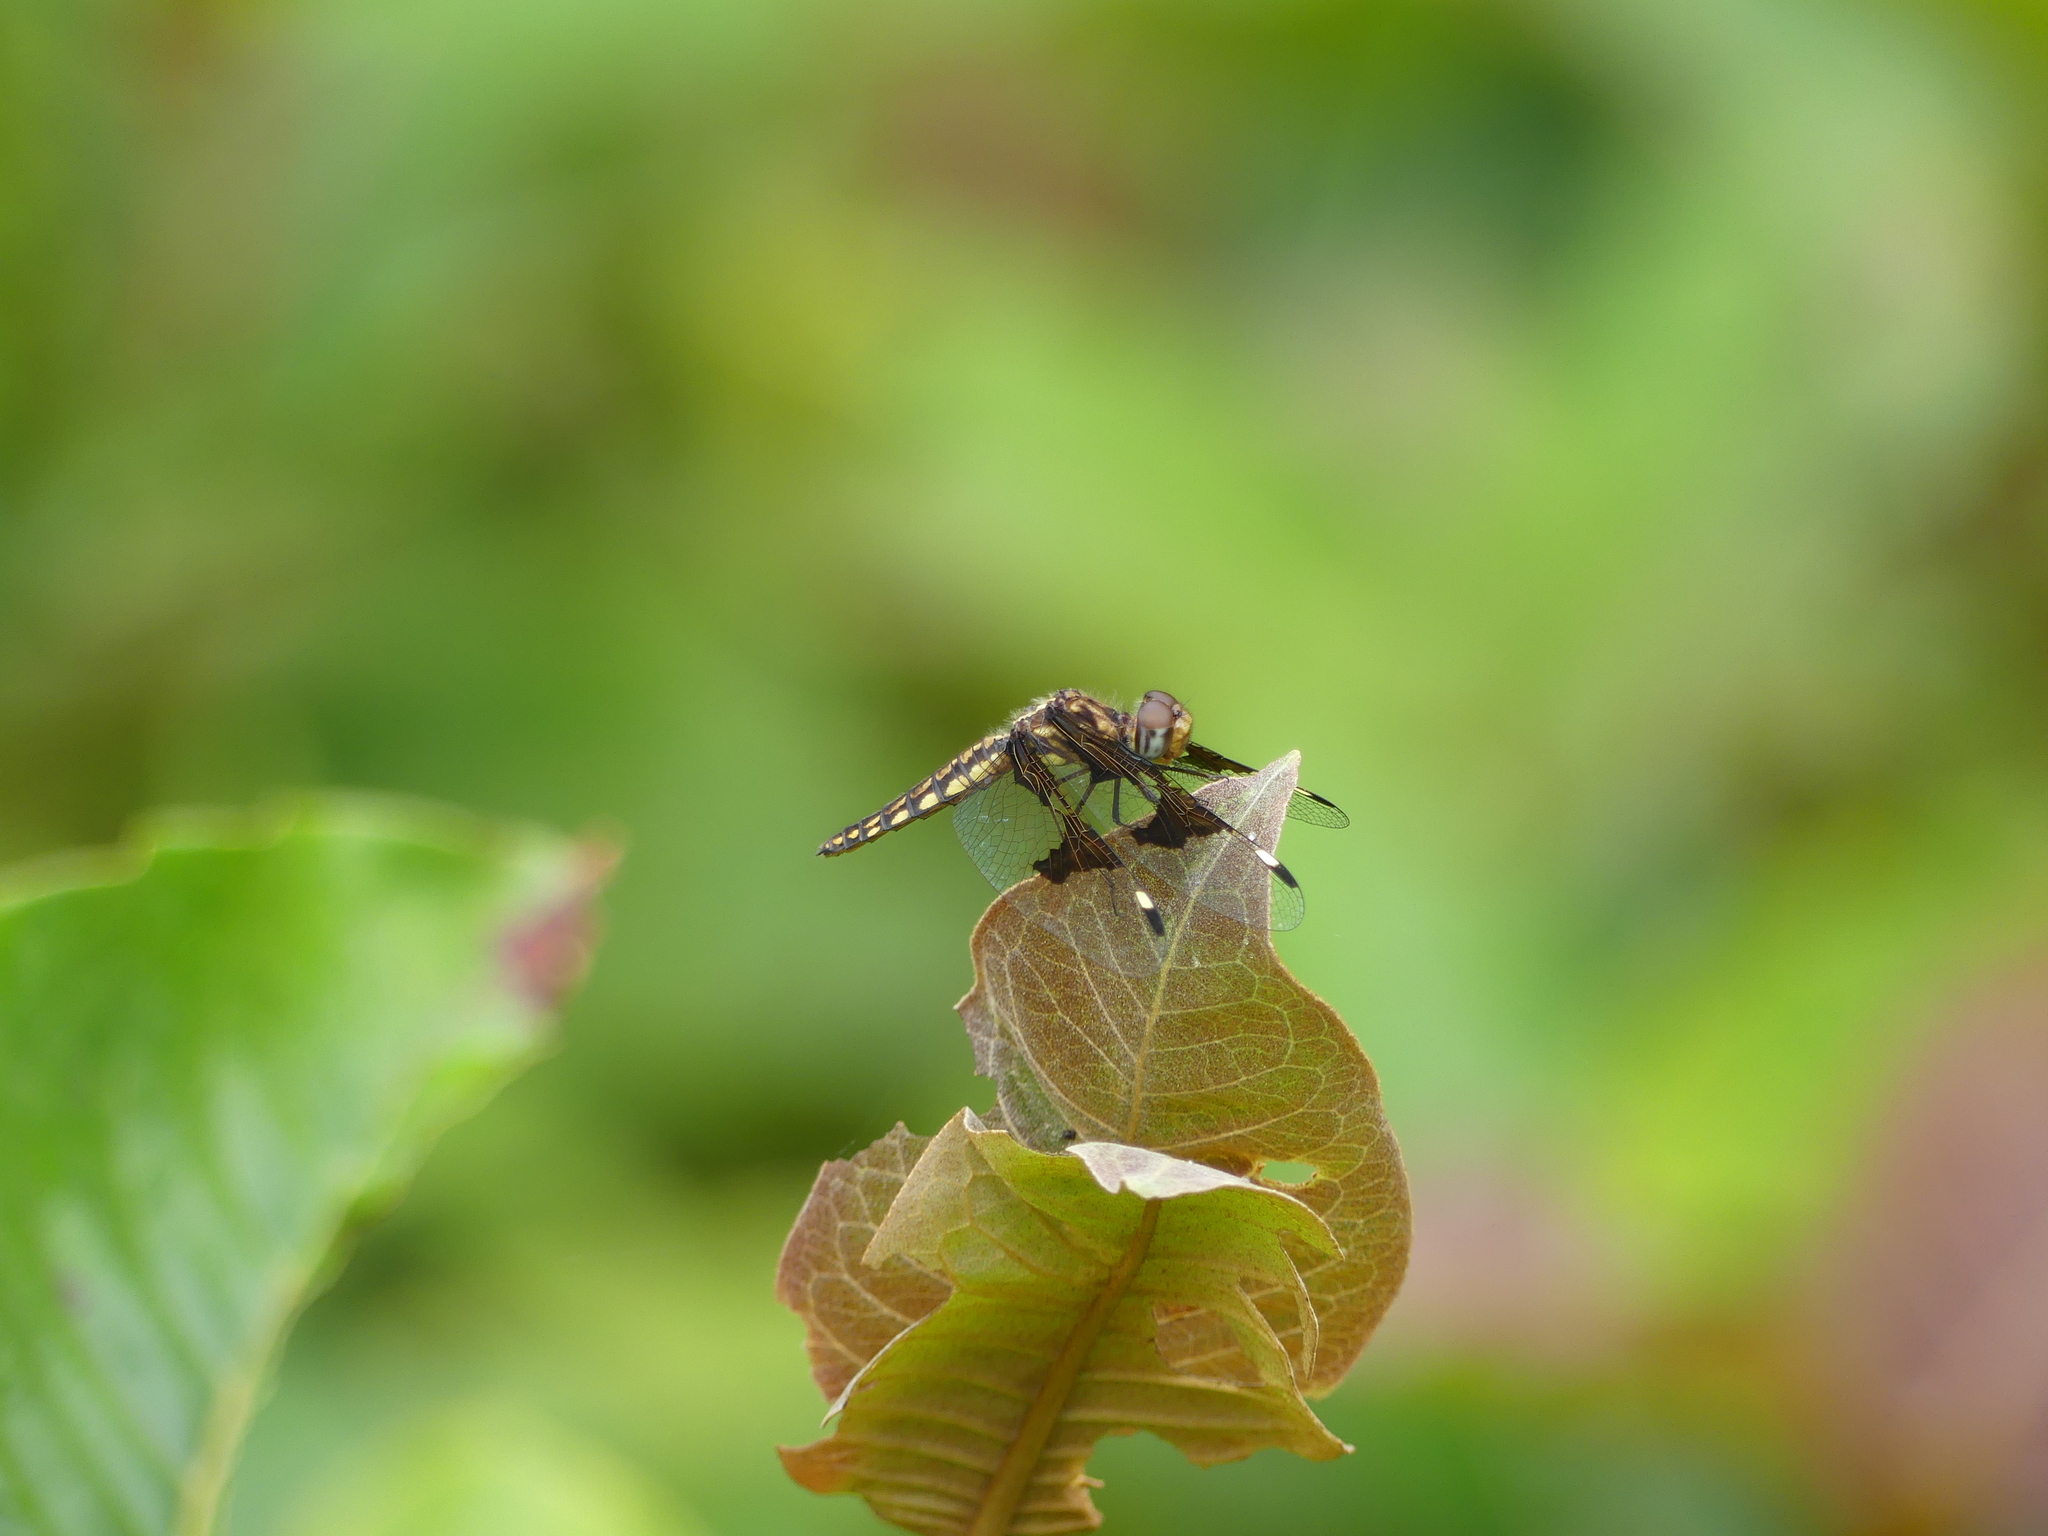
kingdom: Animalia
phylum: Arthropoda
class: Insecta
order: Odonata
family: Libellulidae
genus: Palpopleura
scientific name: Palpopleura portia
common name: Portia widow
